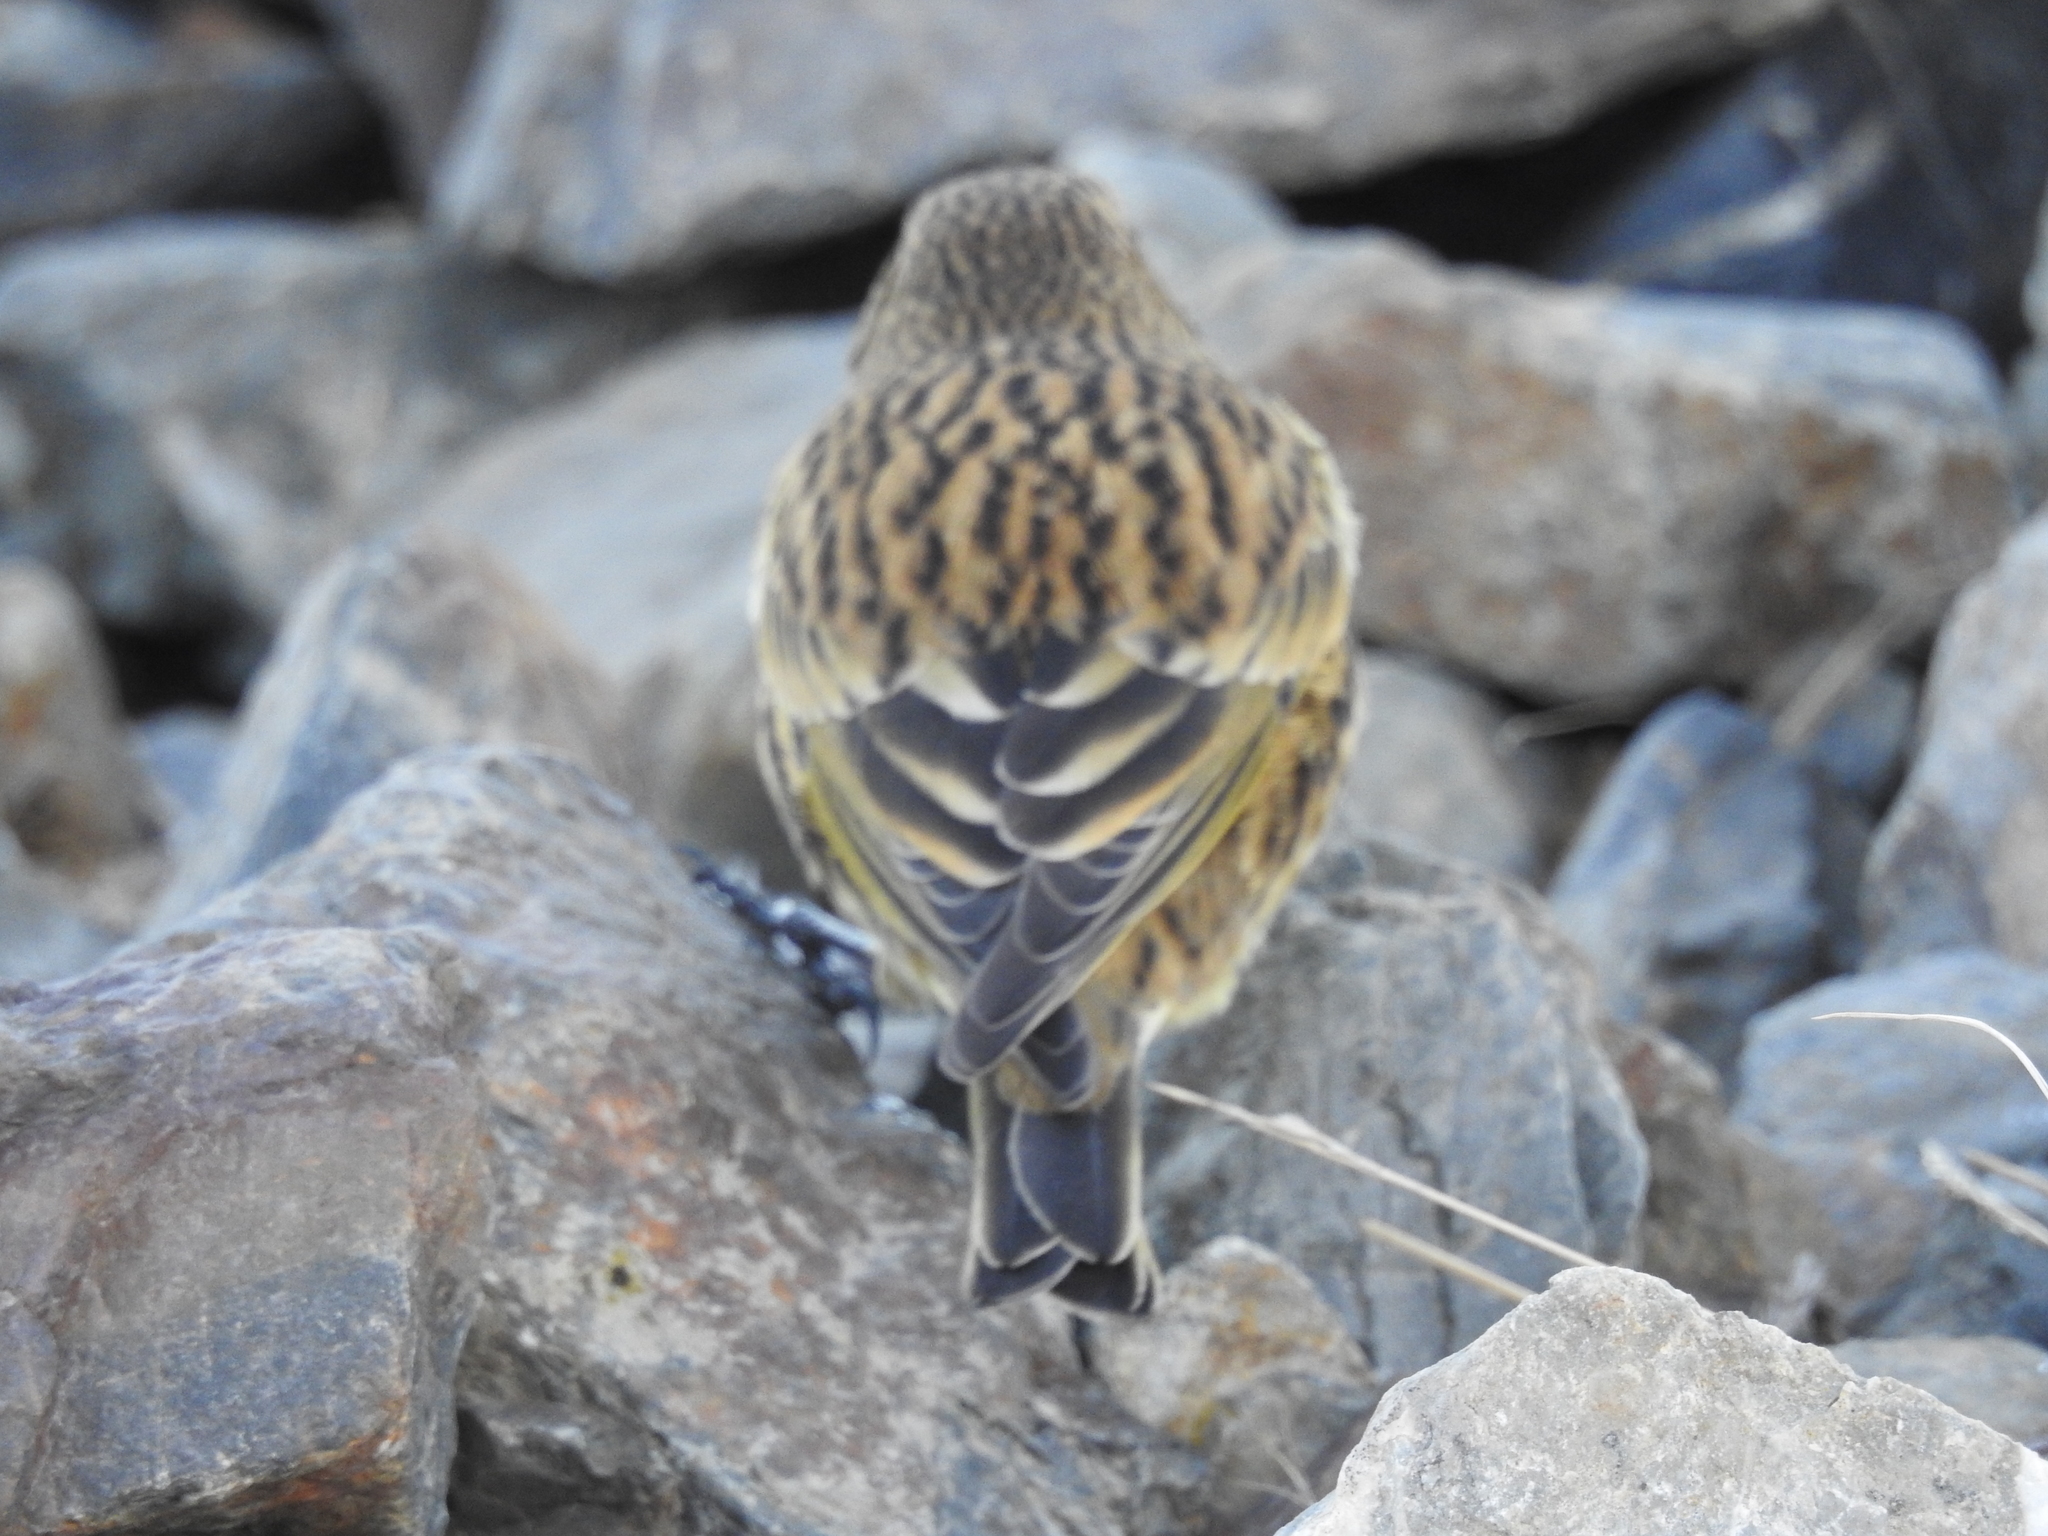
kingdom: Animalia
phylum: Chordata
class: Aves
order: Passeriformes
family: Thraupidae
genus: Melanodera
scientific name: Melanodera xanthogramma
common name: Yellow-bridled finch
